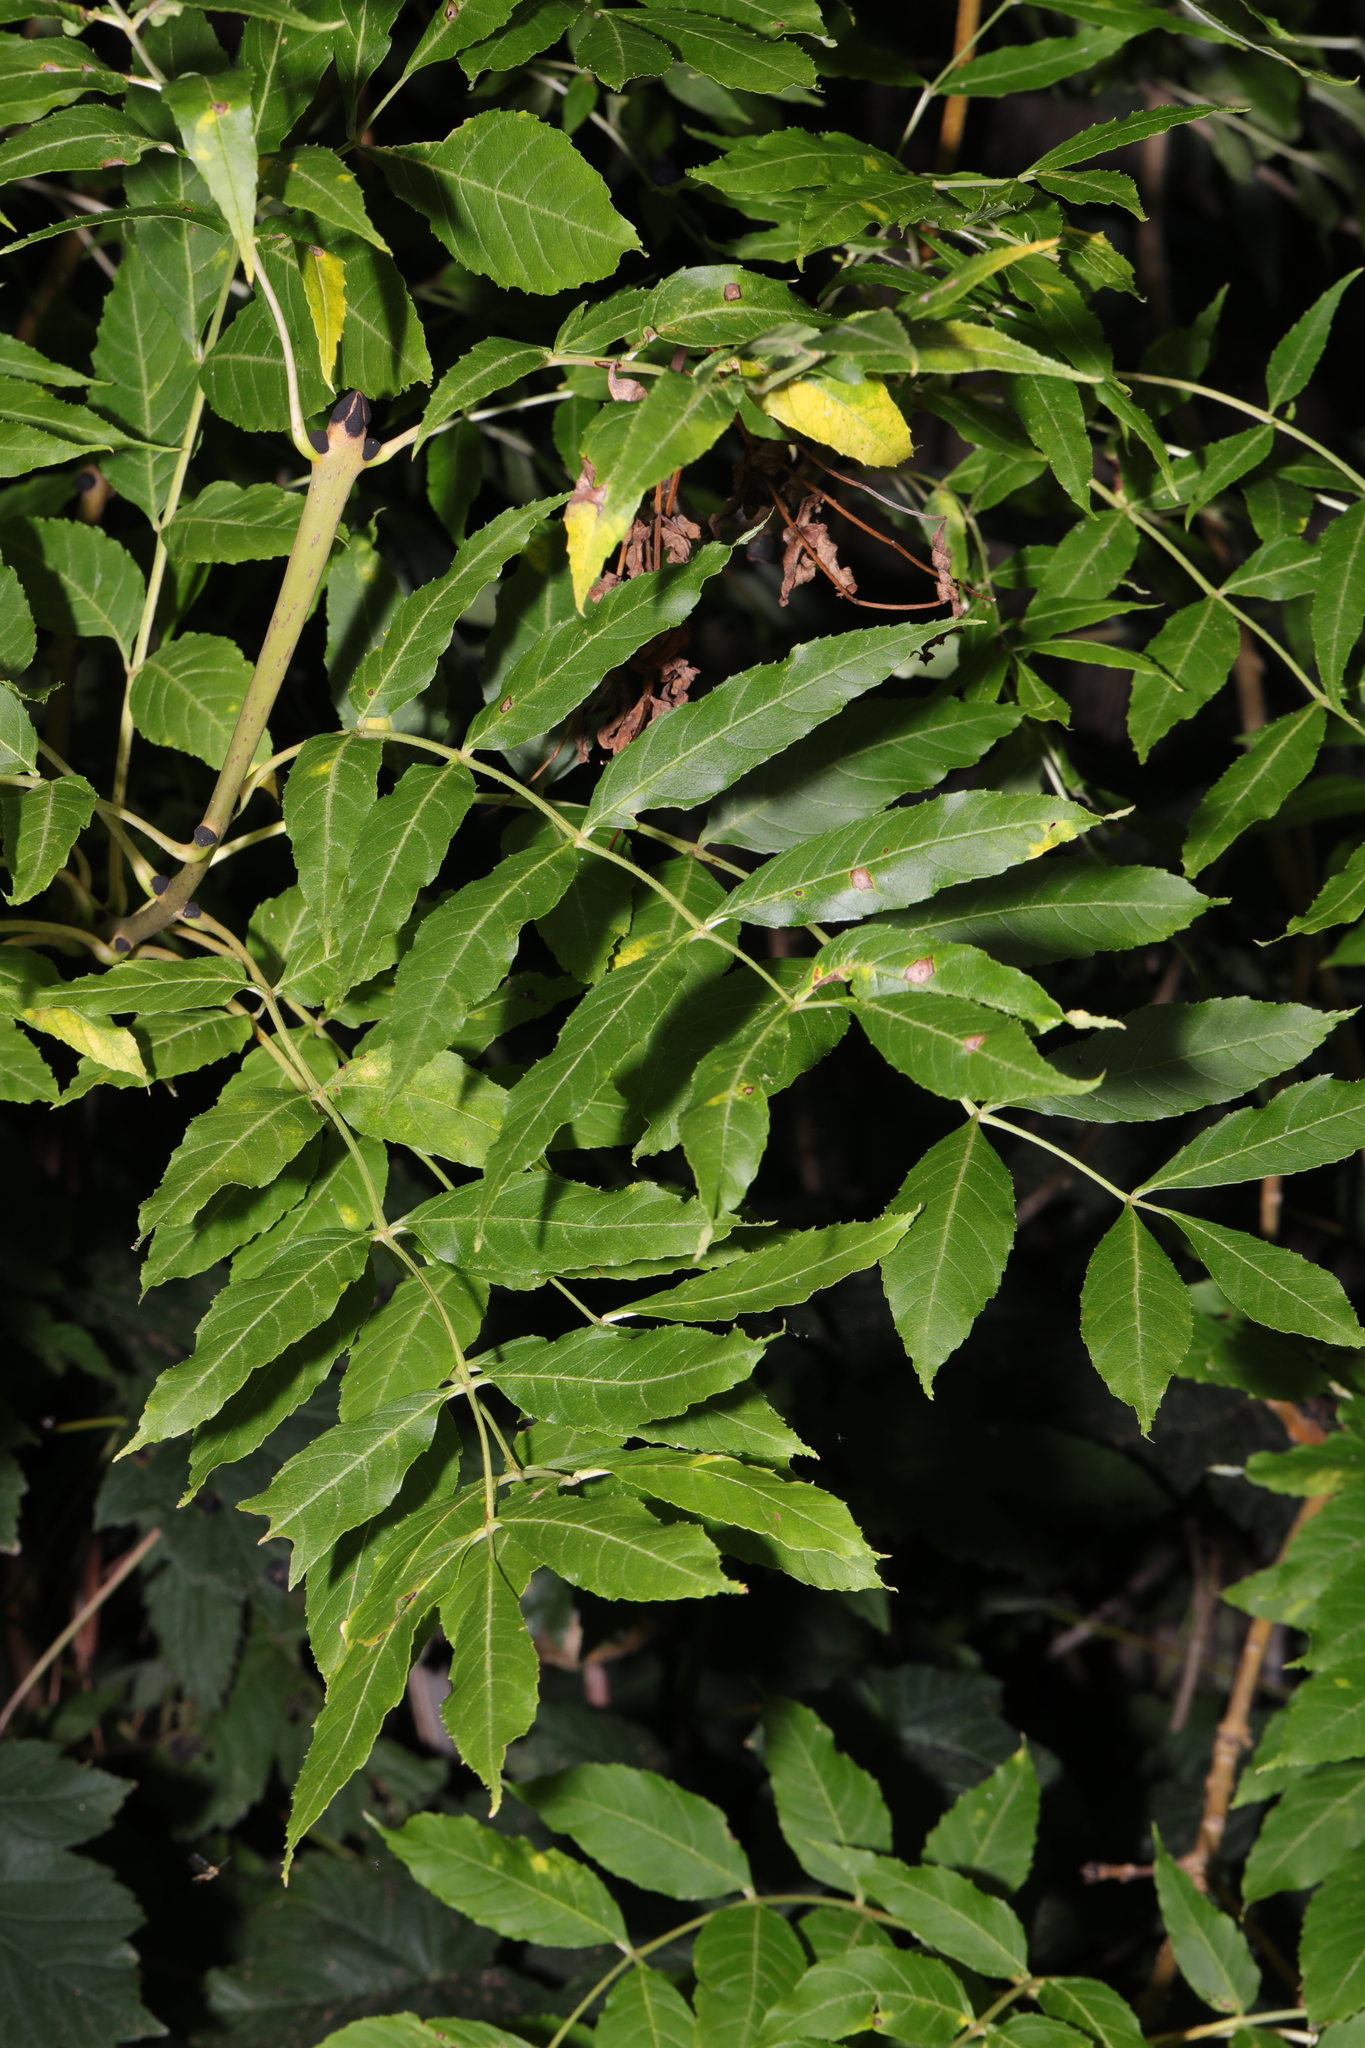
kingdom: Plantae
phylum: Tracheophyta
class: Magnoliopsida
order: Lamiales
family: Oleaceae
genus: Fraxinus
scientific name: Fraxinus excelsior
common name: European ash
